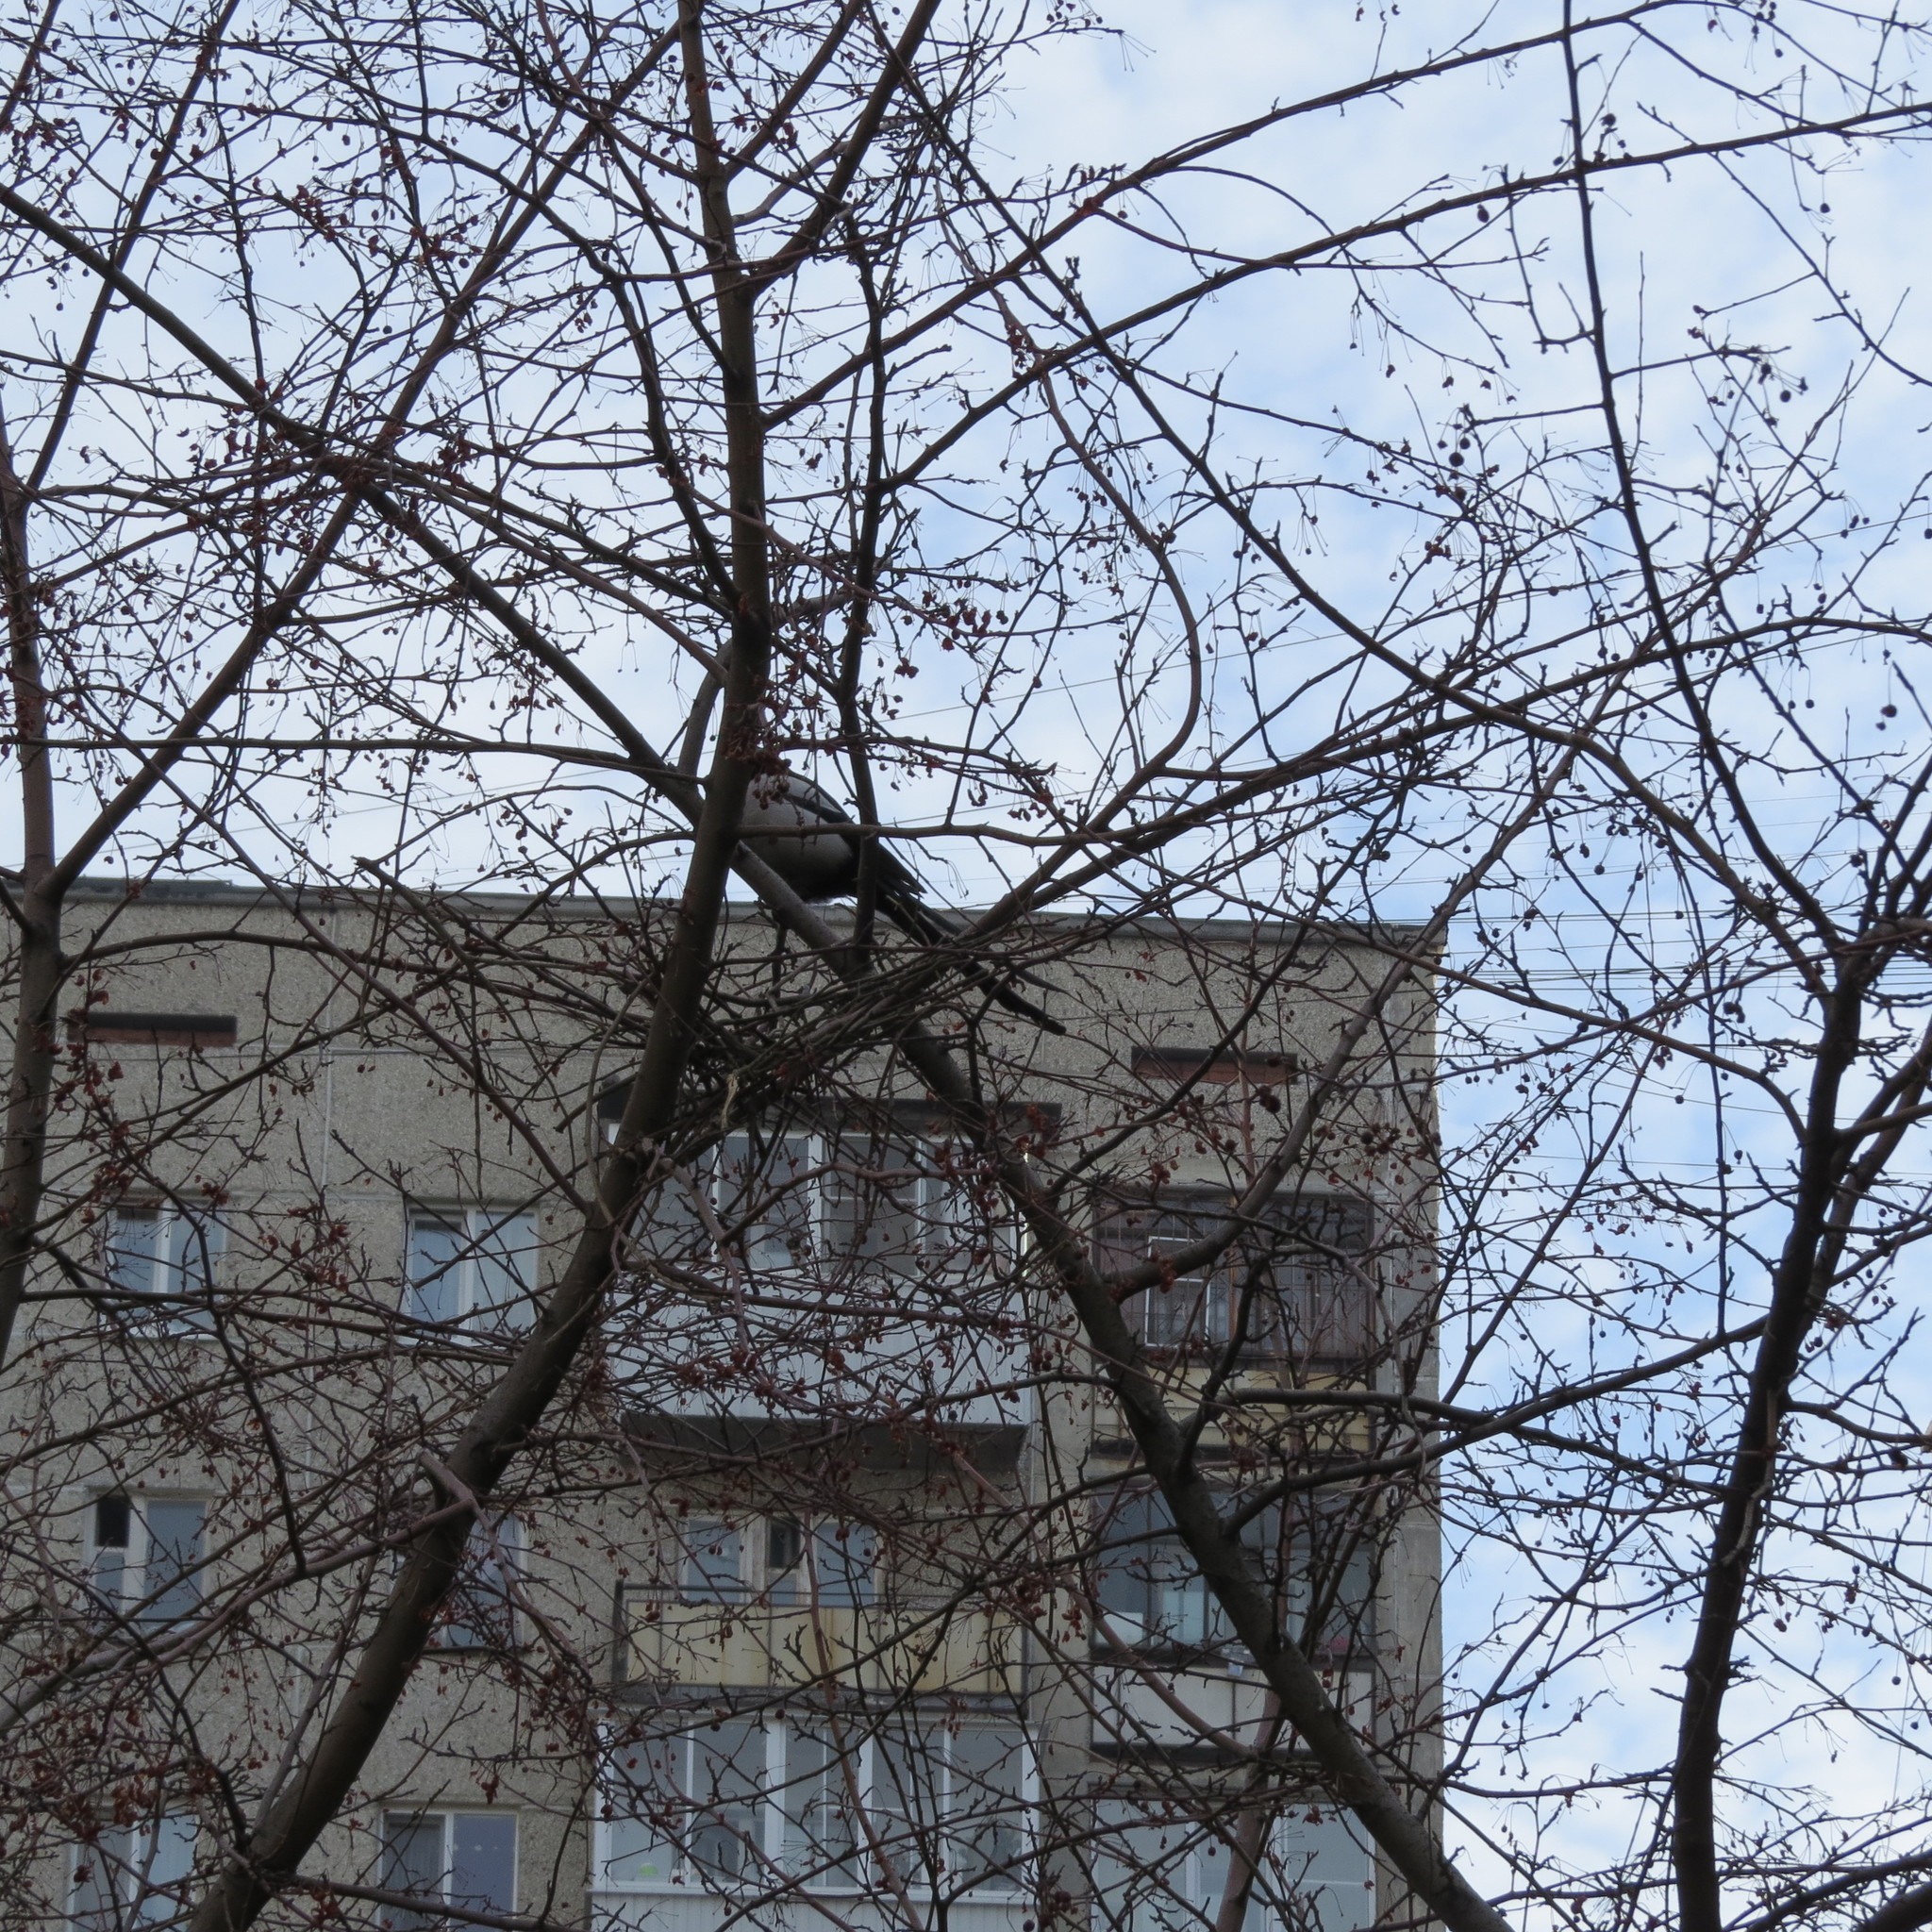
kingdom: Animalia
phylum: Chordata
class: Aves
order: Passeriformes
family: Corvidae
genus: Pica
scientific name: Pica pica
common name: Eurasian magpie
